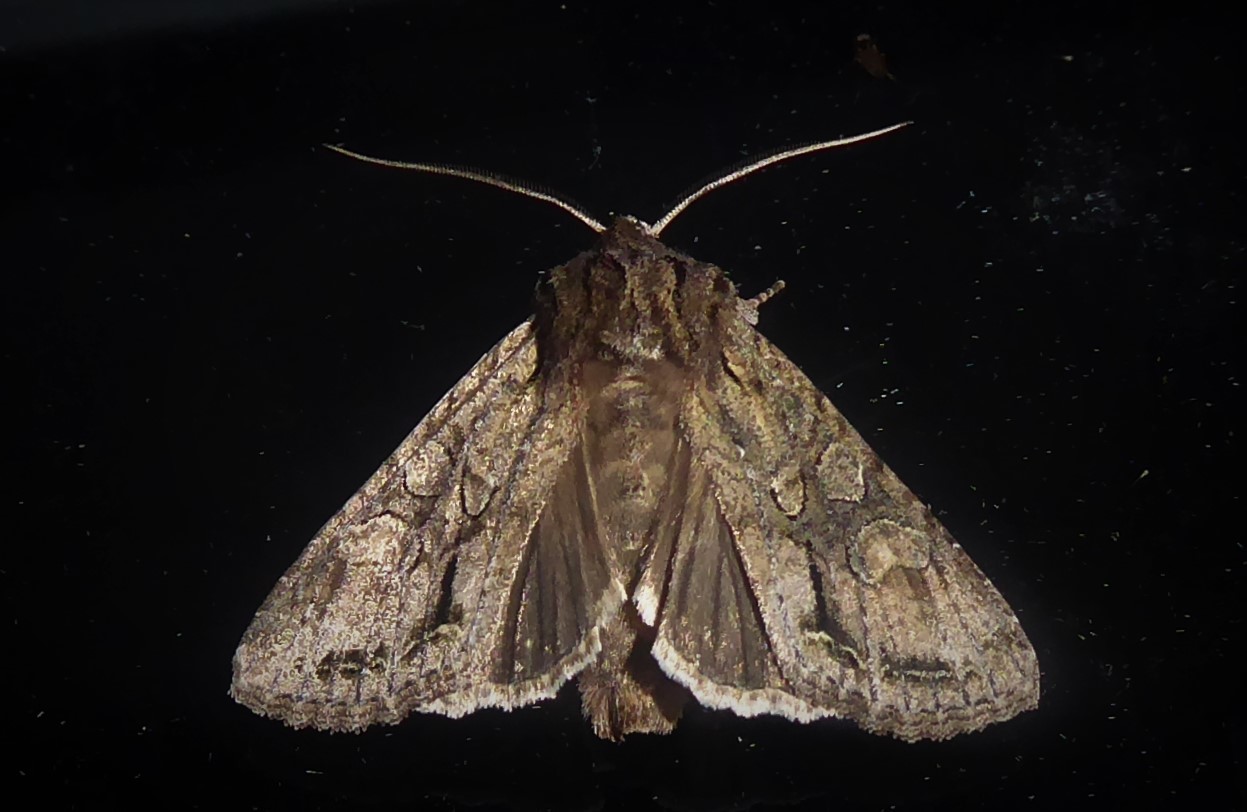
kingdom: Animalia
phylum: Arthropoda
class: Insecta
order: Lepidoptera
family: Noctuidae
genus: Ichneutica
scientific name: Ichneutica mutans
